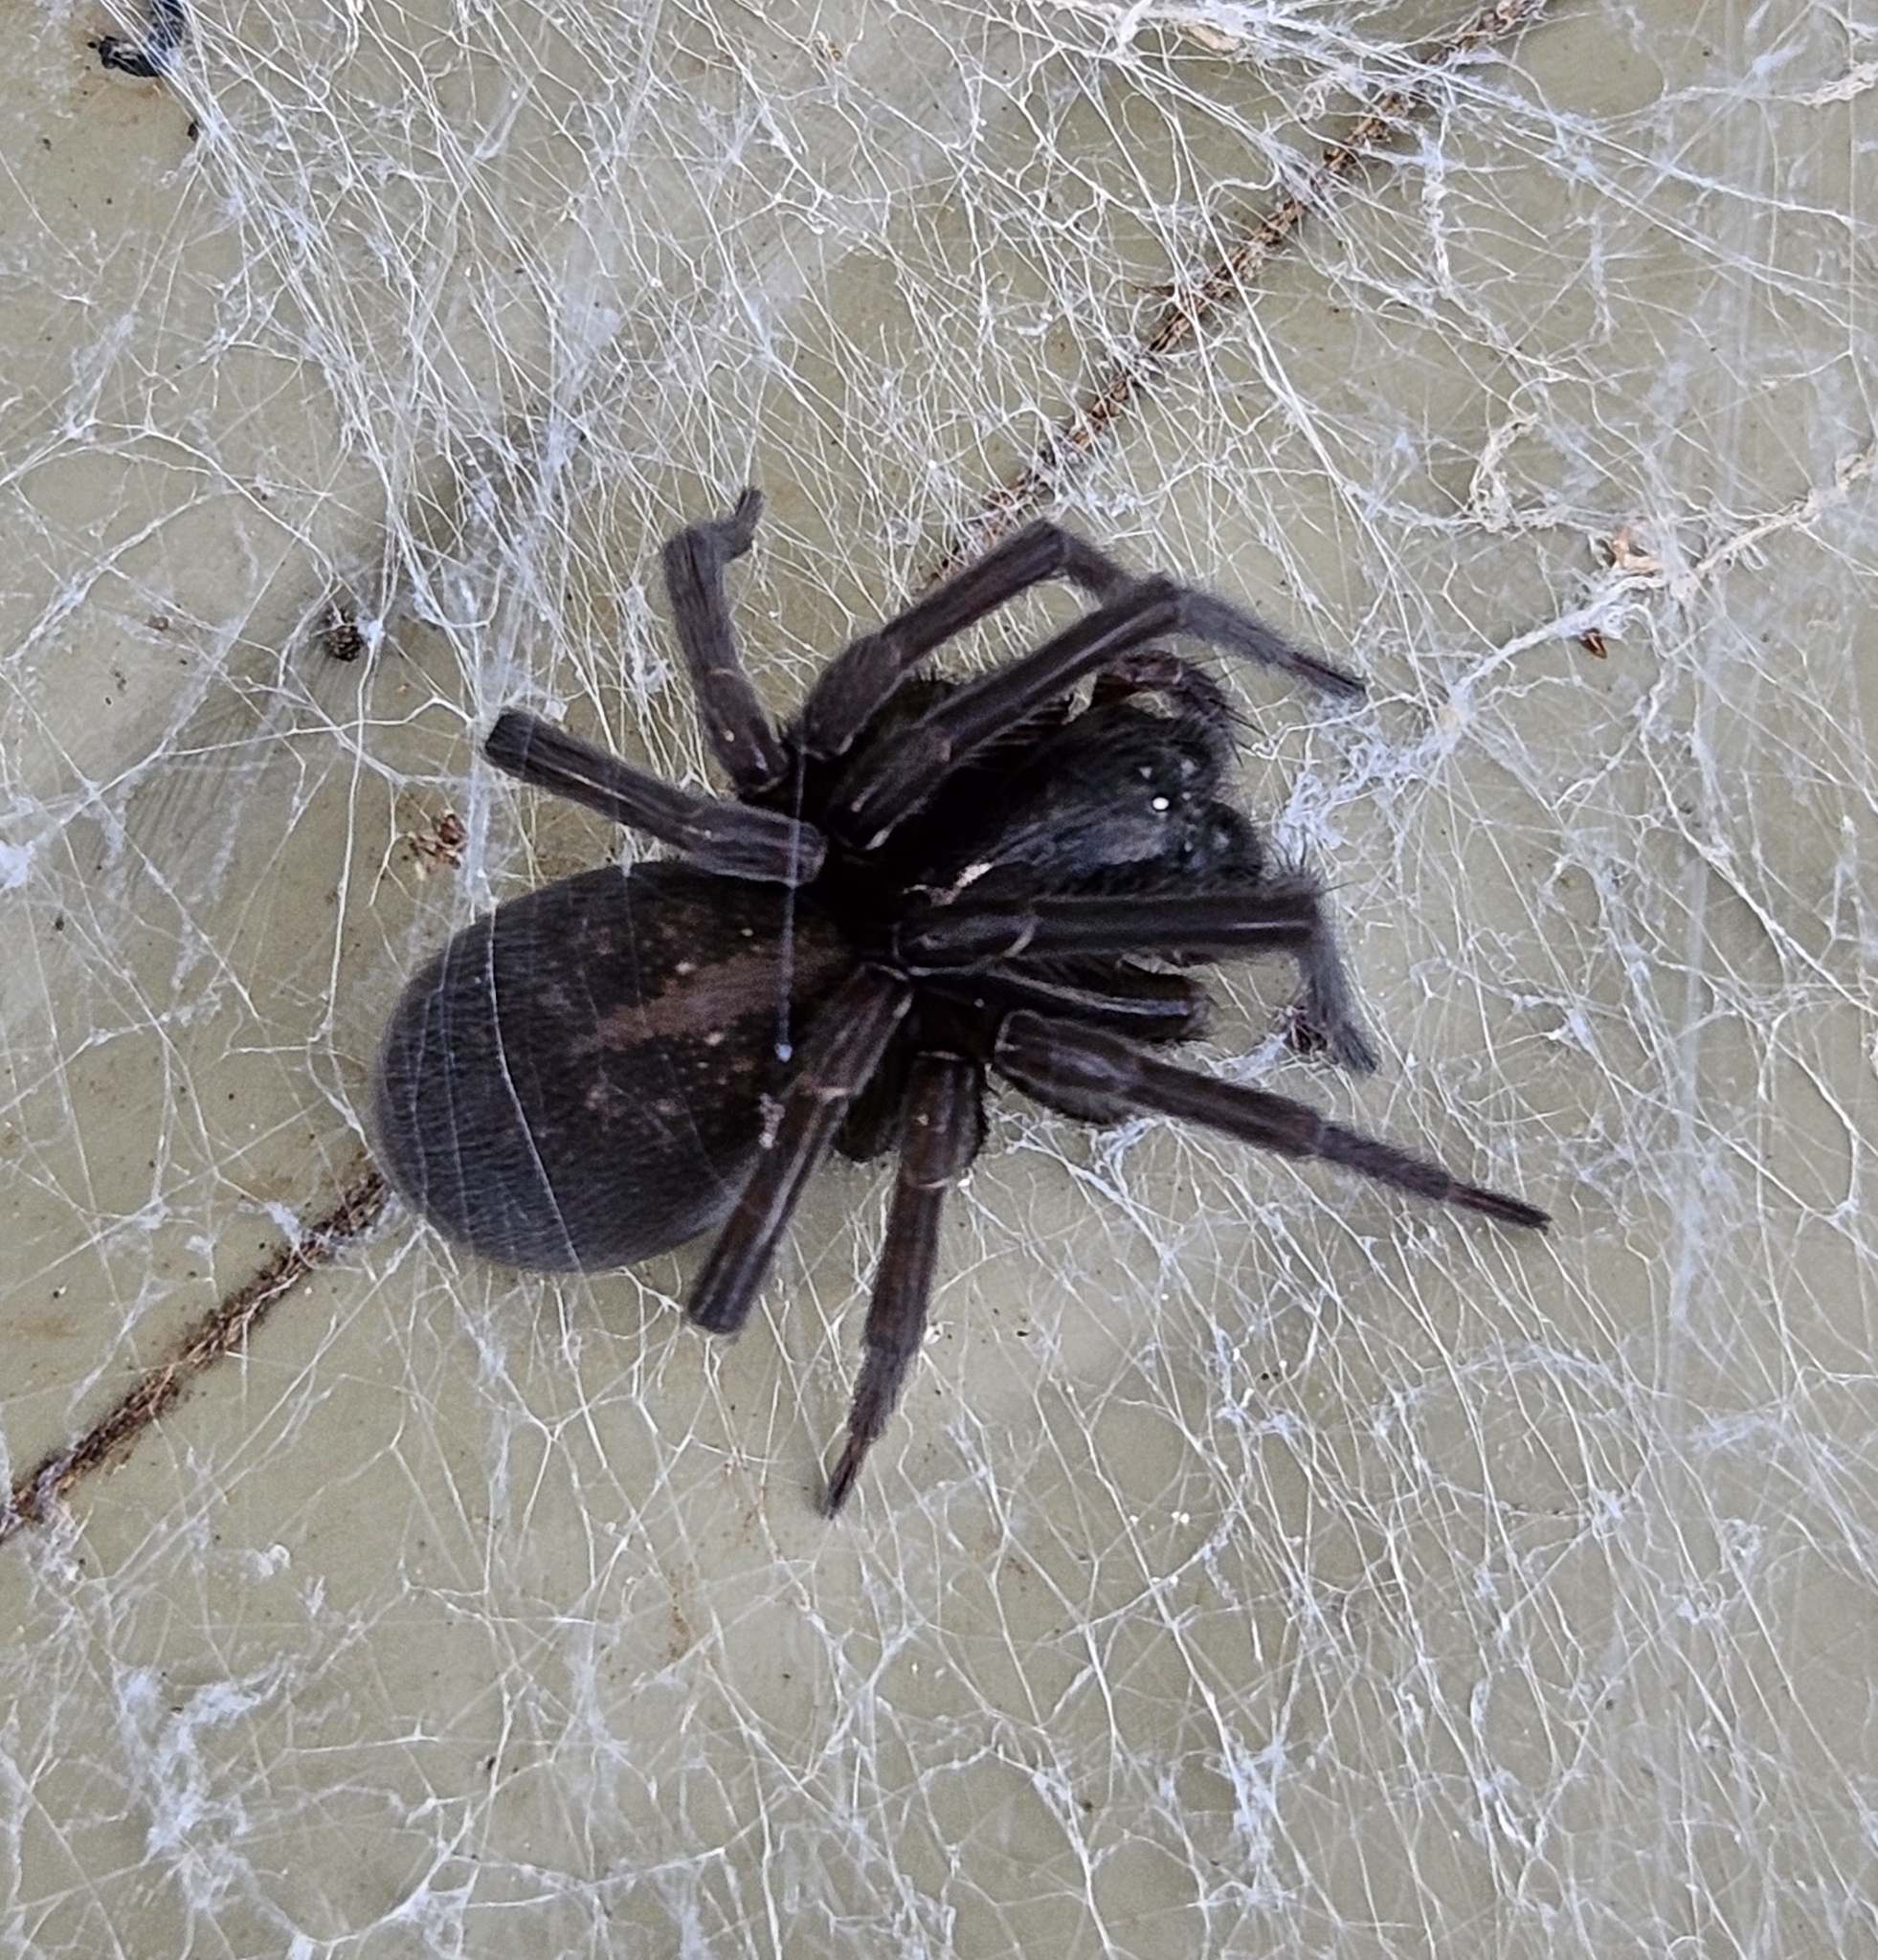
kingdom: Animalia
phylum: Arthropoda
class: Arachnida
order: Araneae
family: Amaurobiidae
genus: Amaurobius
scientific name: Amaurobius ferox
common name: Black laceweaver
